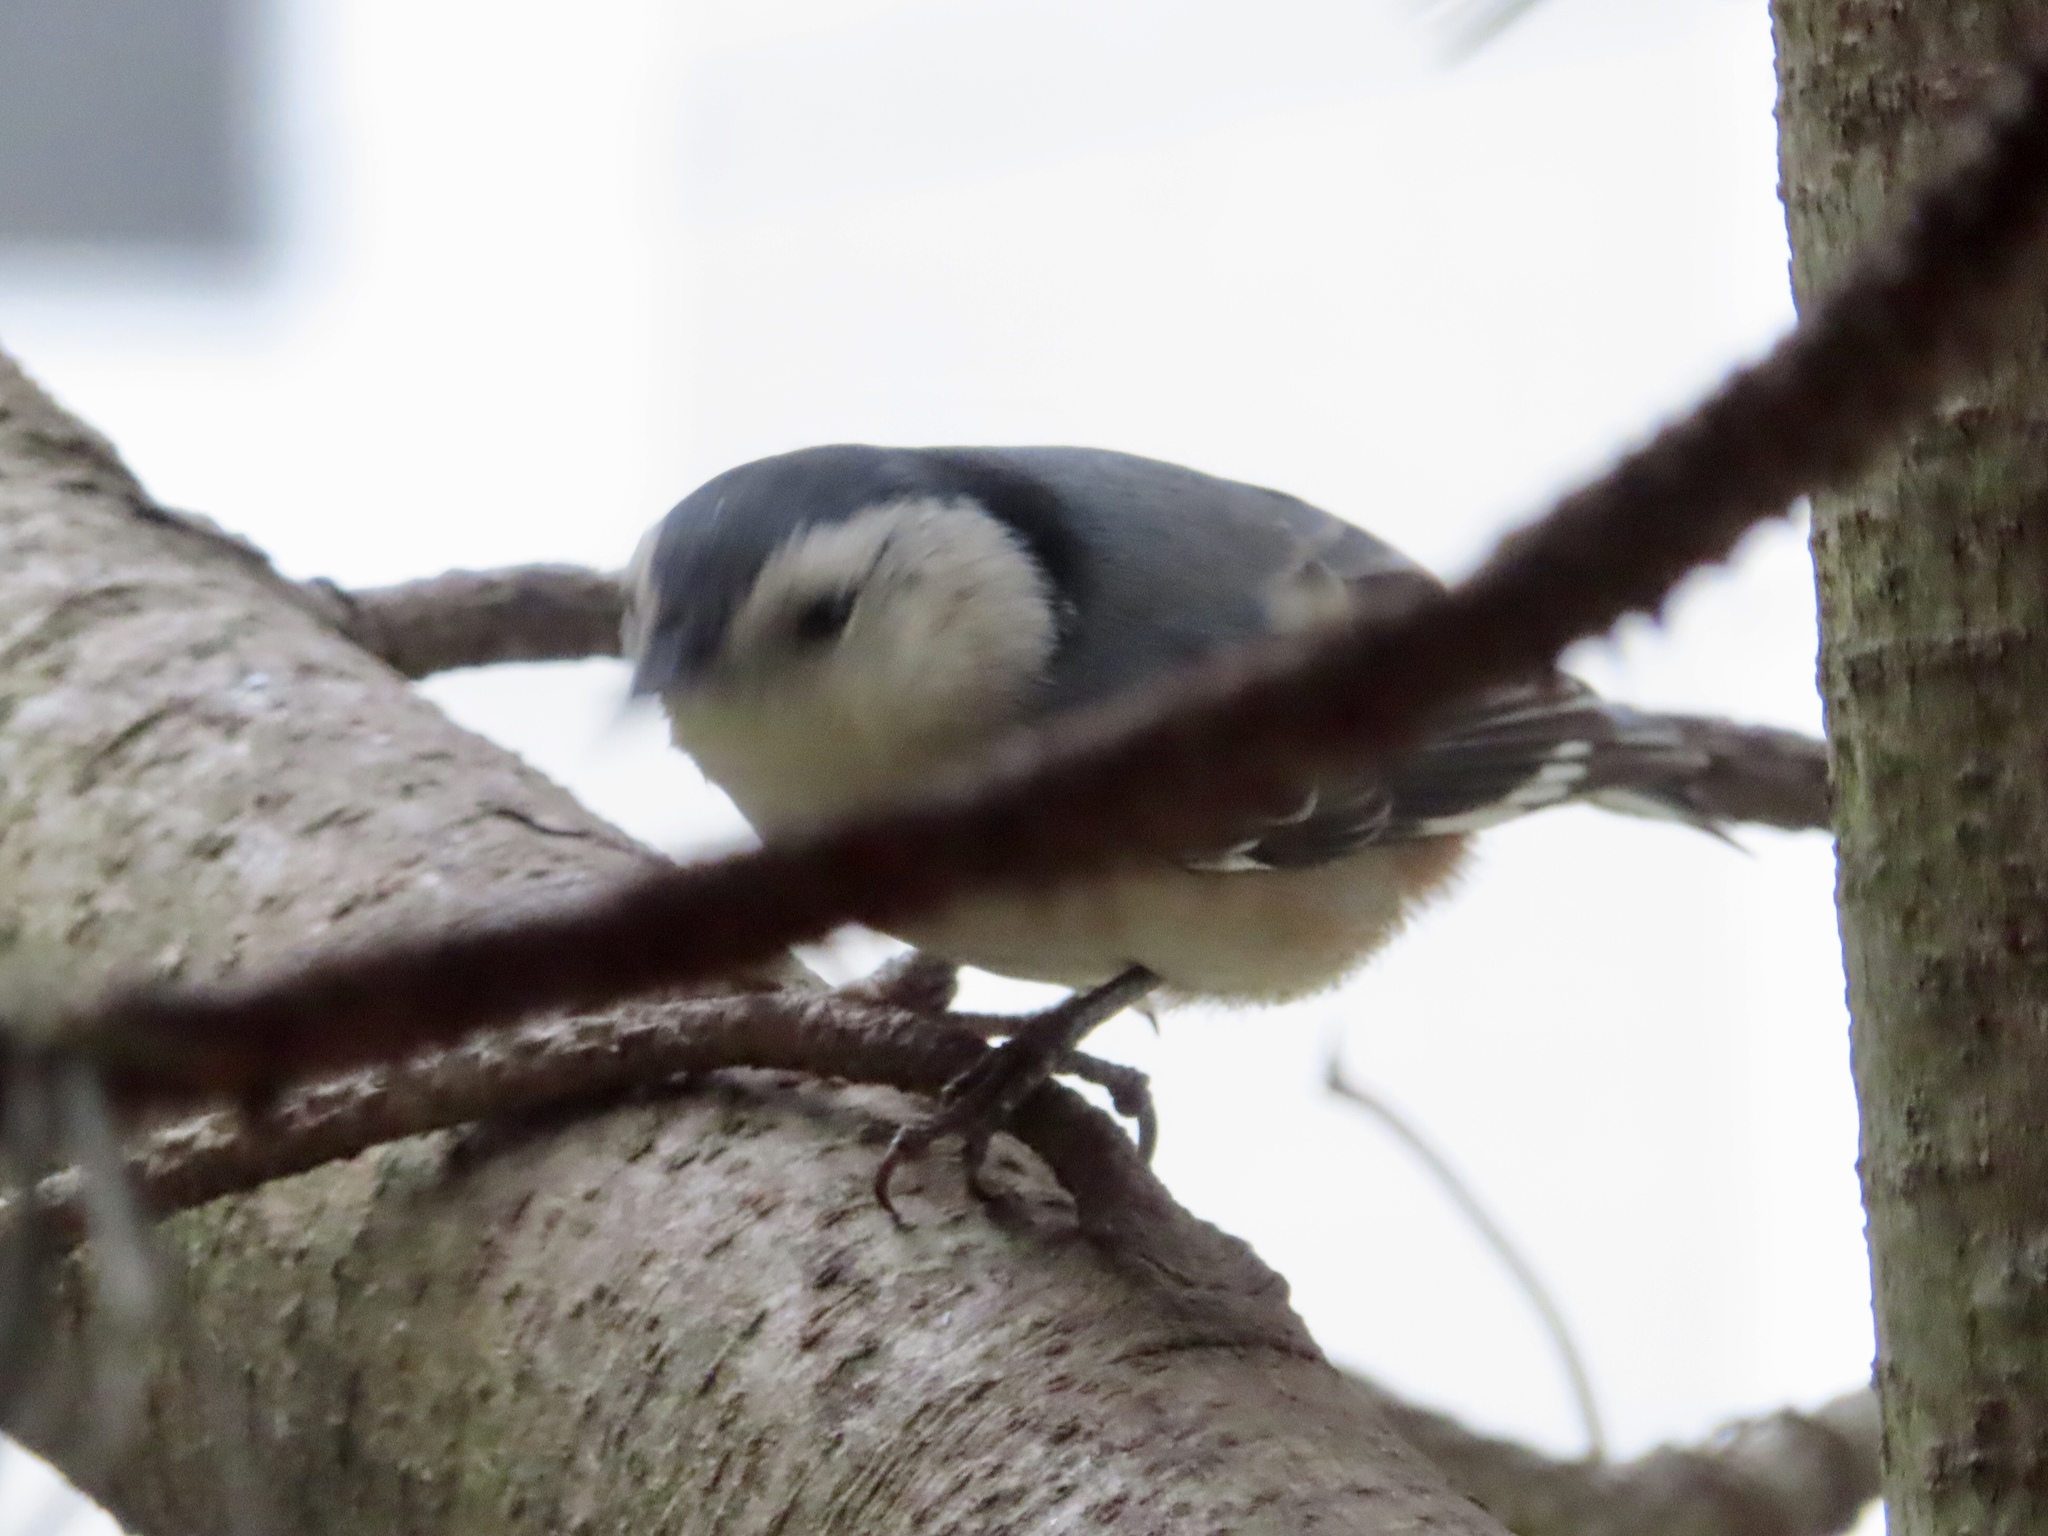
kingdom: Animalia
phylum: Chordata
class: Aves
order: Passeriformes
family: Sittidae
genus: Sitta
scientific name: Sitta carolinensis
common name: White-breasted nuthatch
